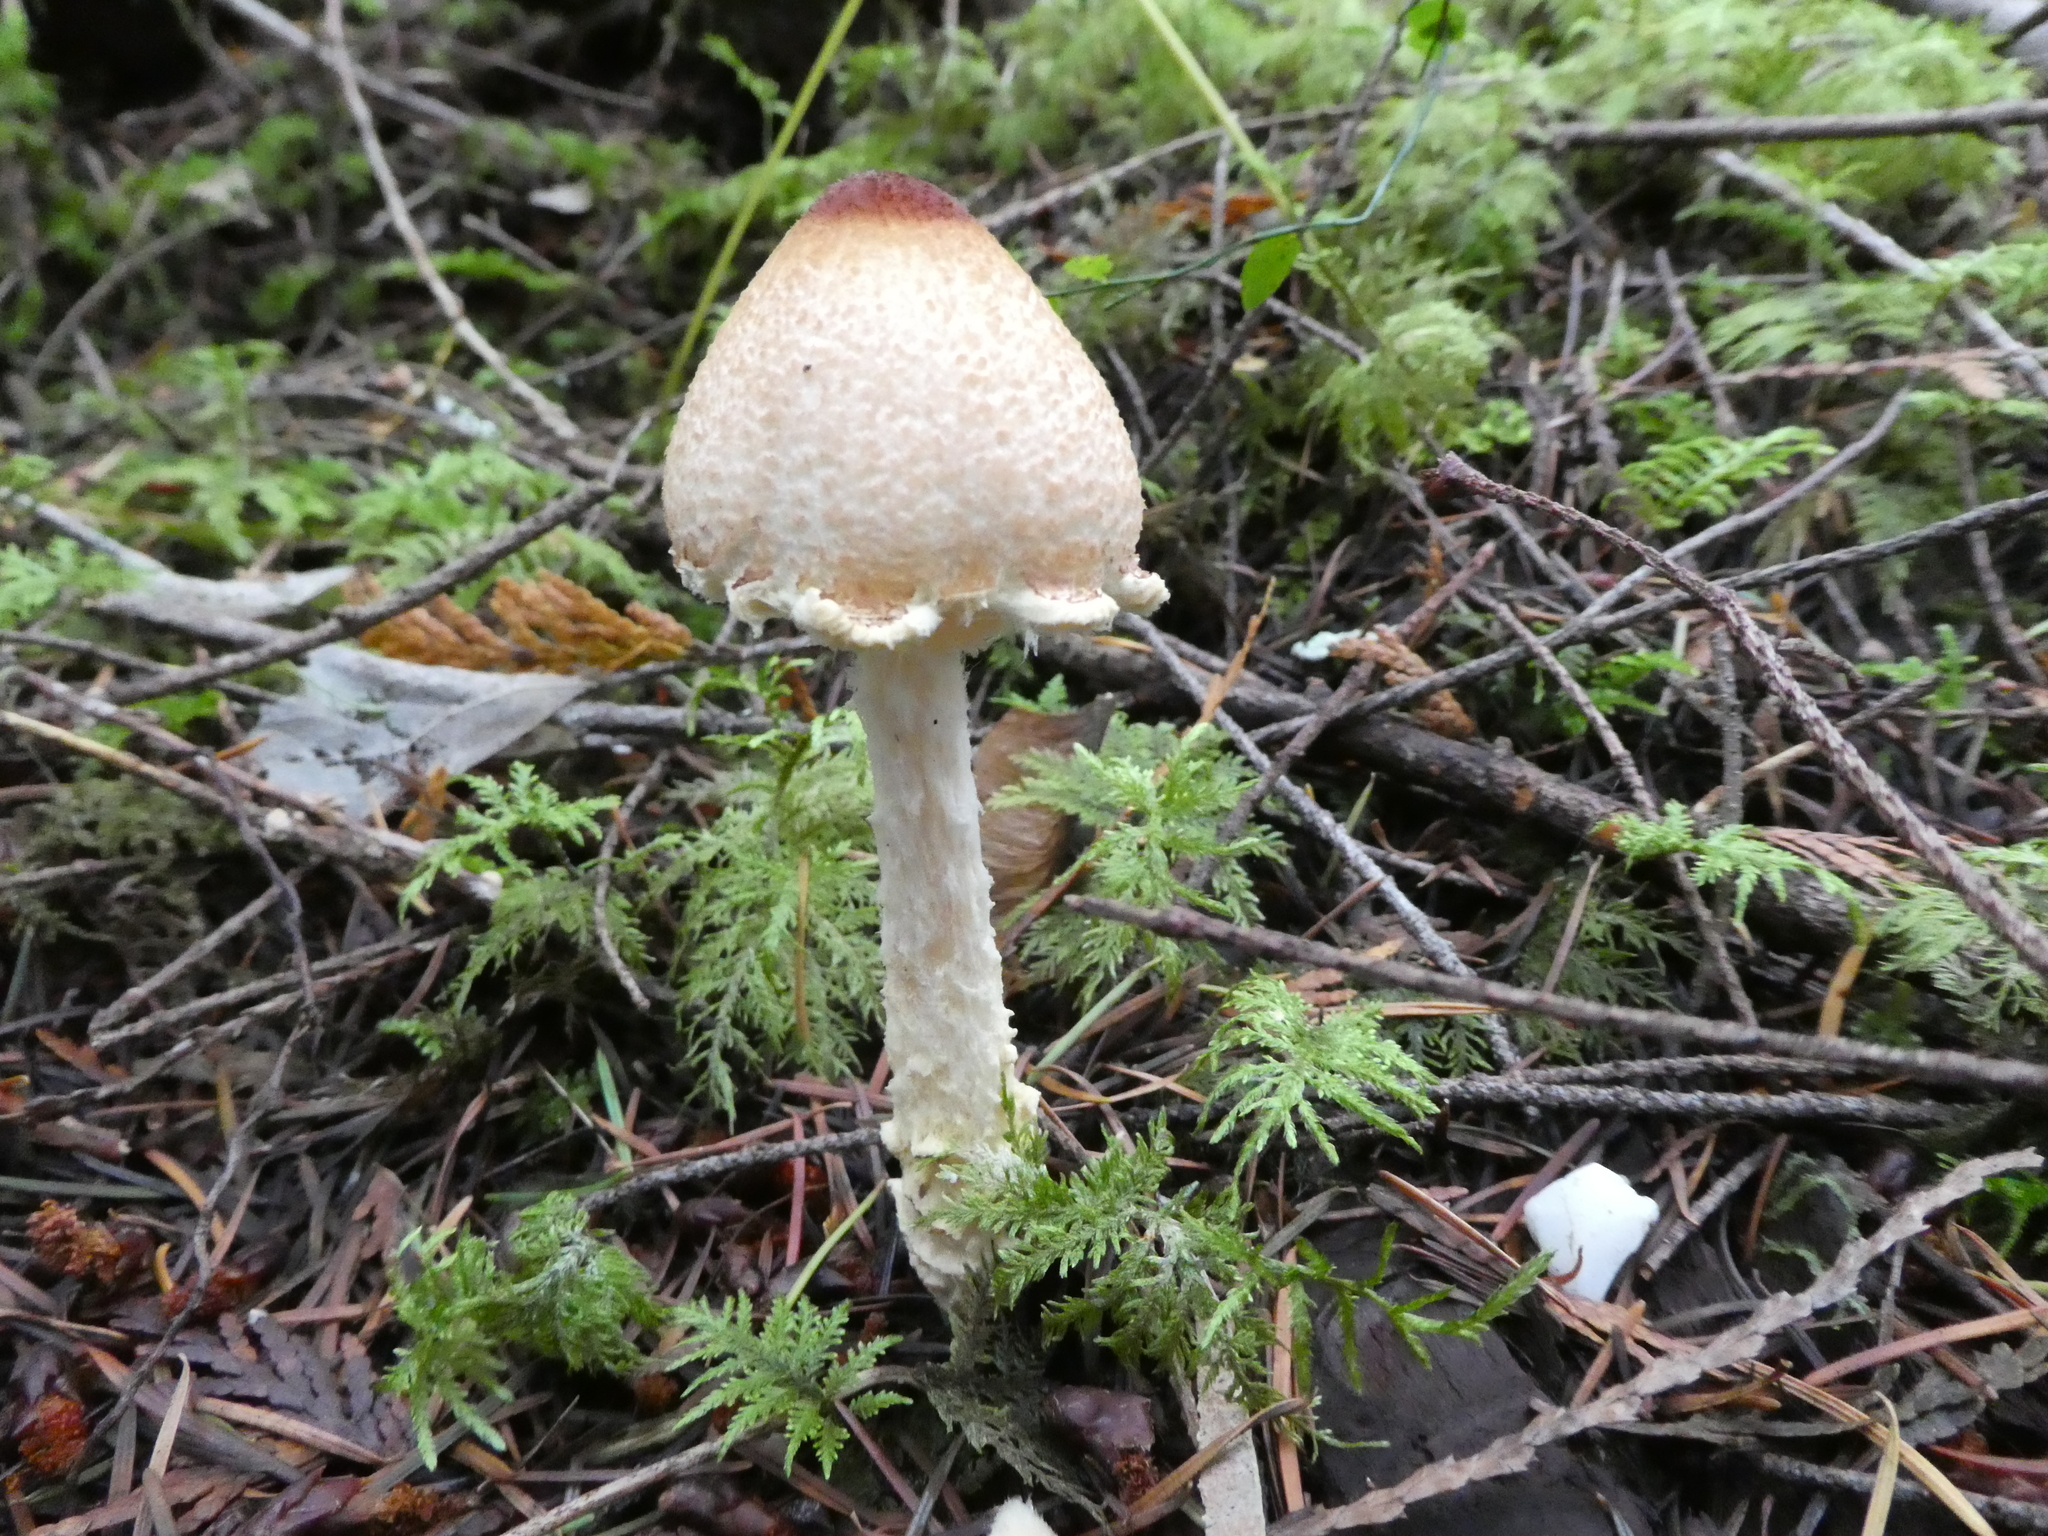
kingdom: Fungi
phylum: Basidiomycota
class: Agaricomycetes
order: Agaricales
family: Agaricaceae
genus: Lepiota
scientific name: Lepiota magnispora
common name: Yellowfoot dapperling
